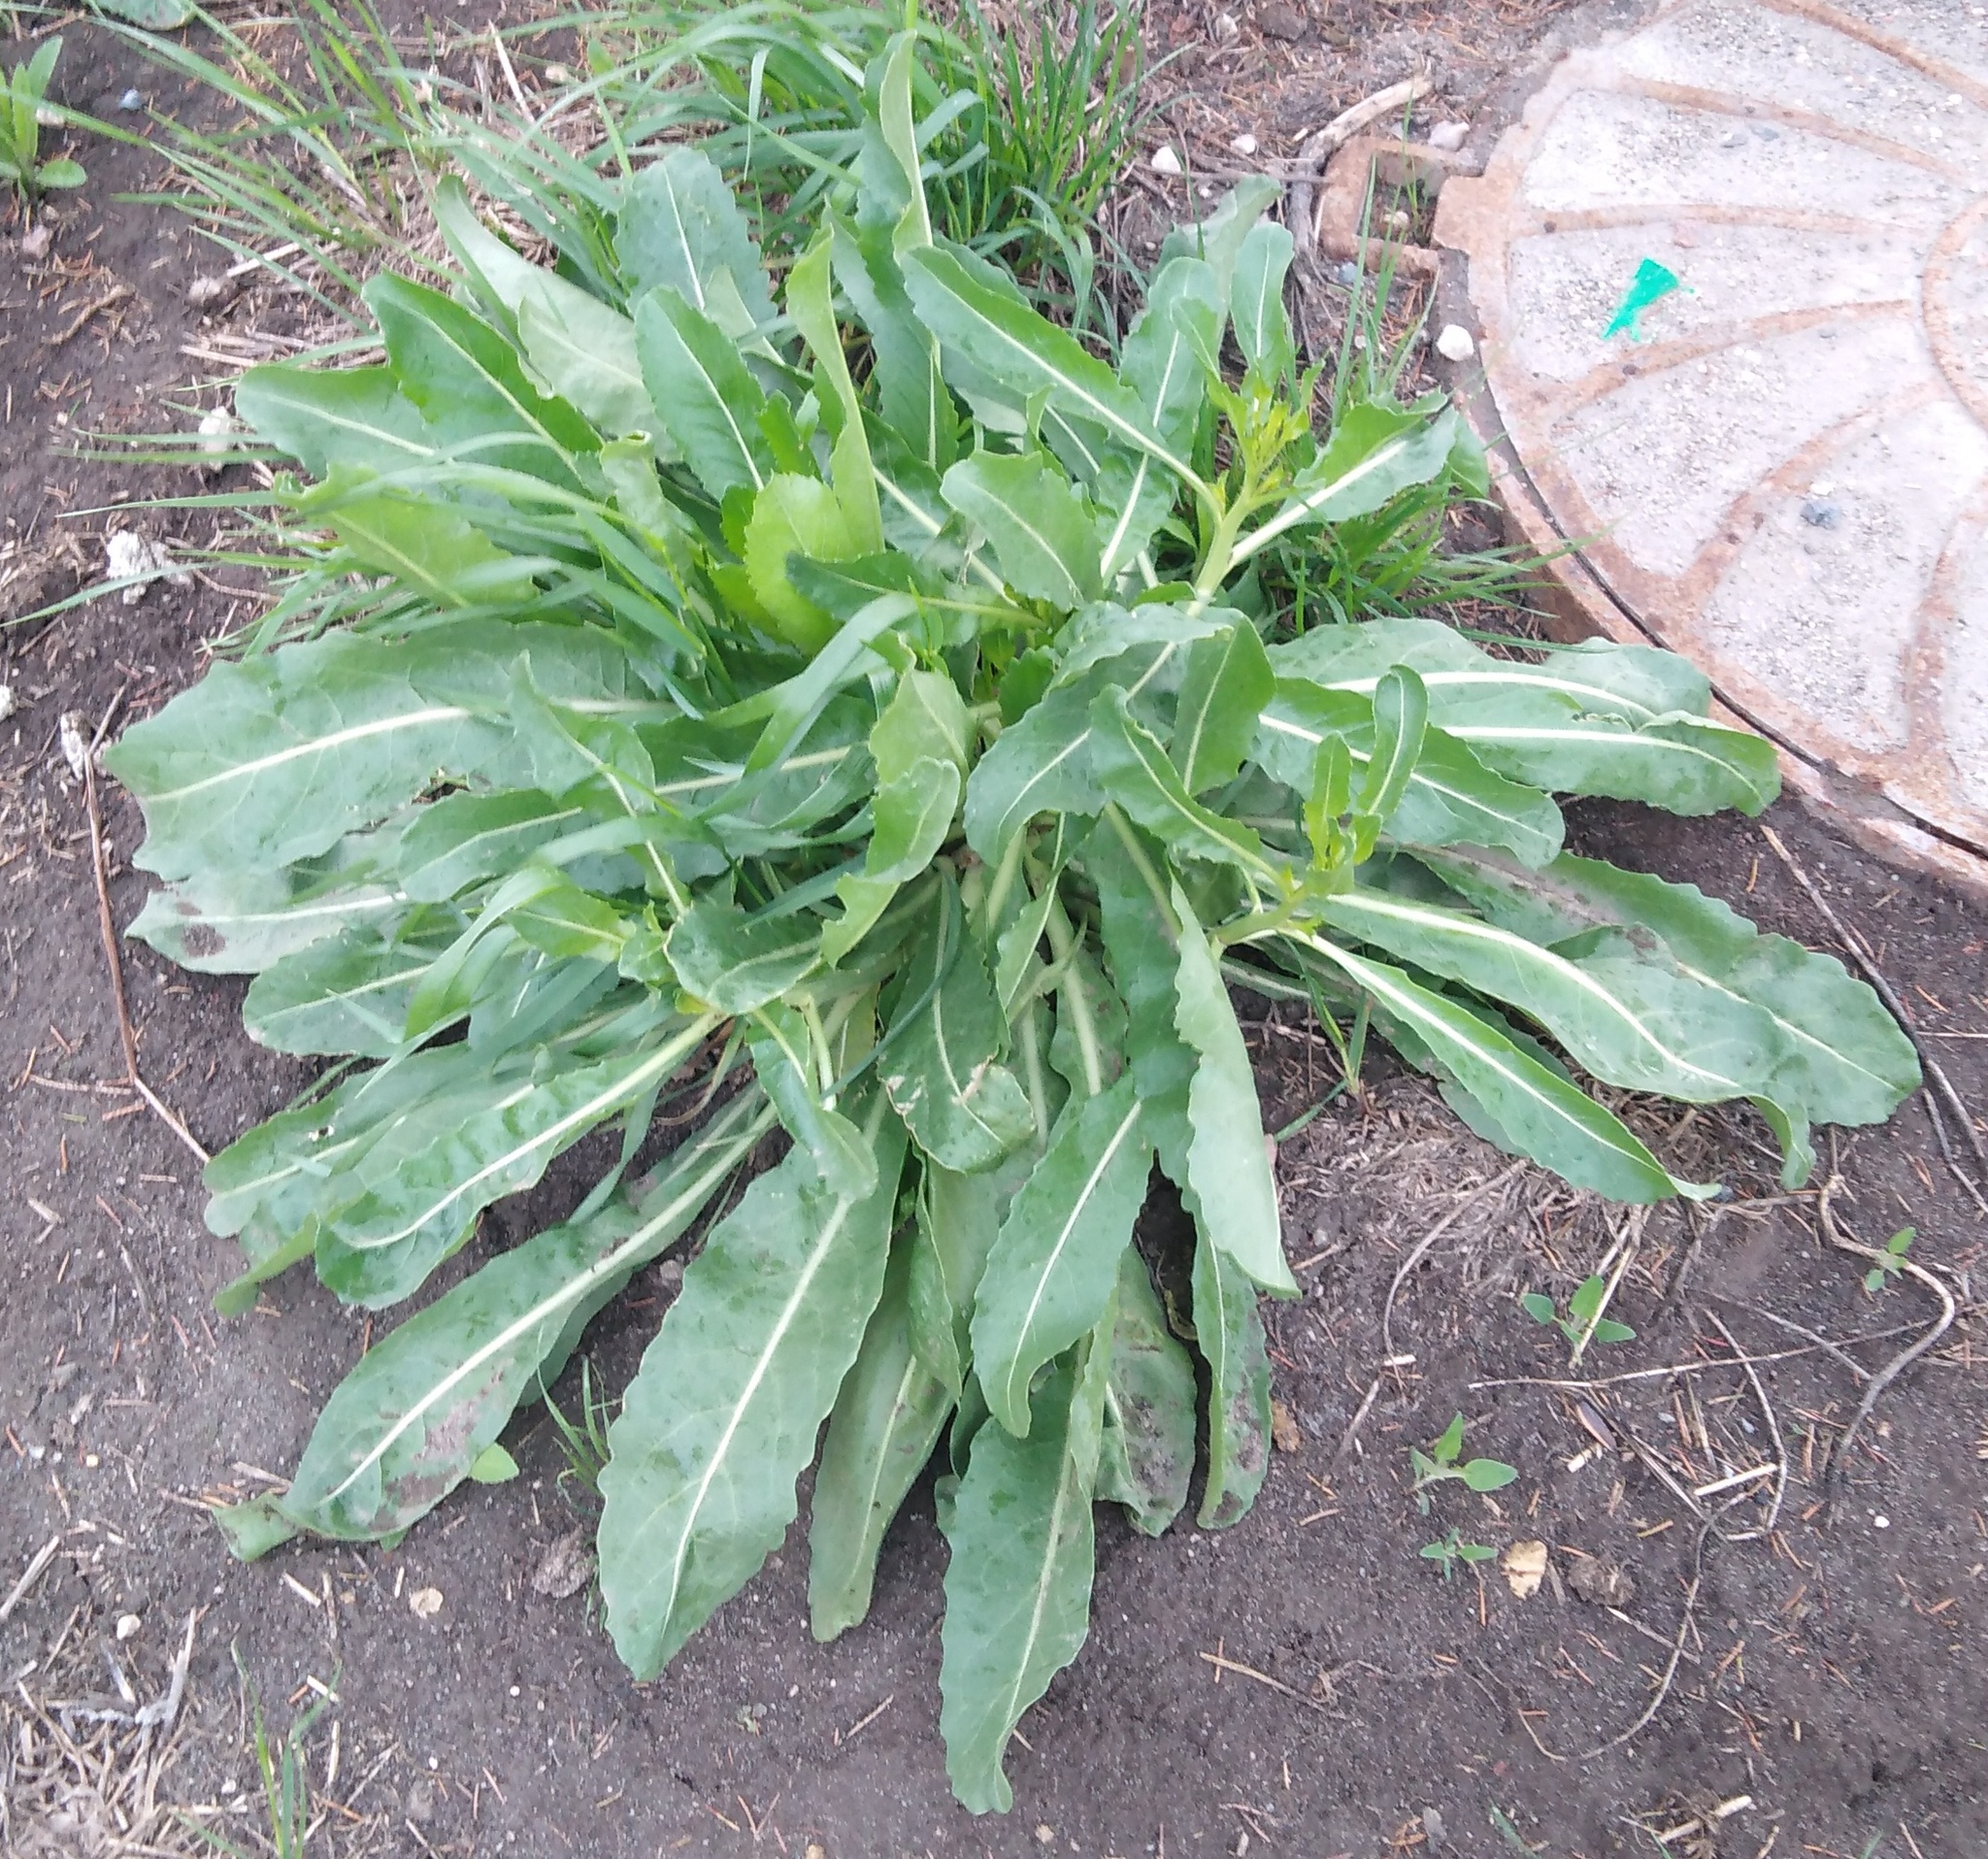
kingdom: Plantae
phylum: Tracheophyta
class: Magnoliopsida
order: Brassicales
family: Brassicaceae
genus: Bunias
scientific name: Bunias orientalis
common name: Warty-cabbage
